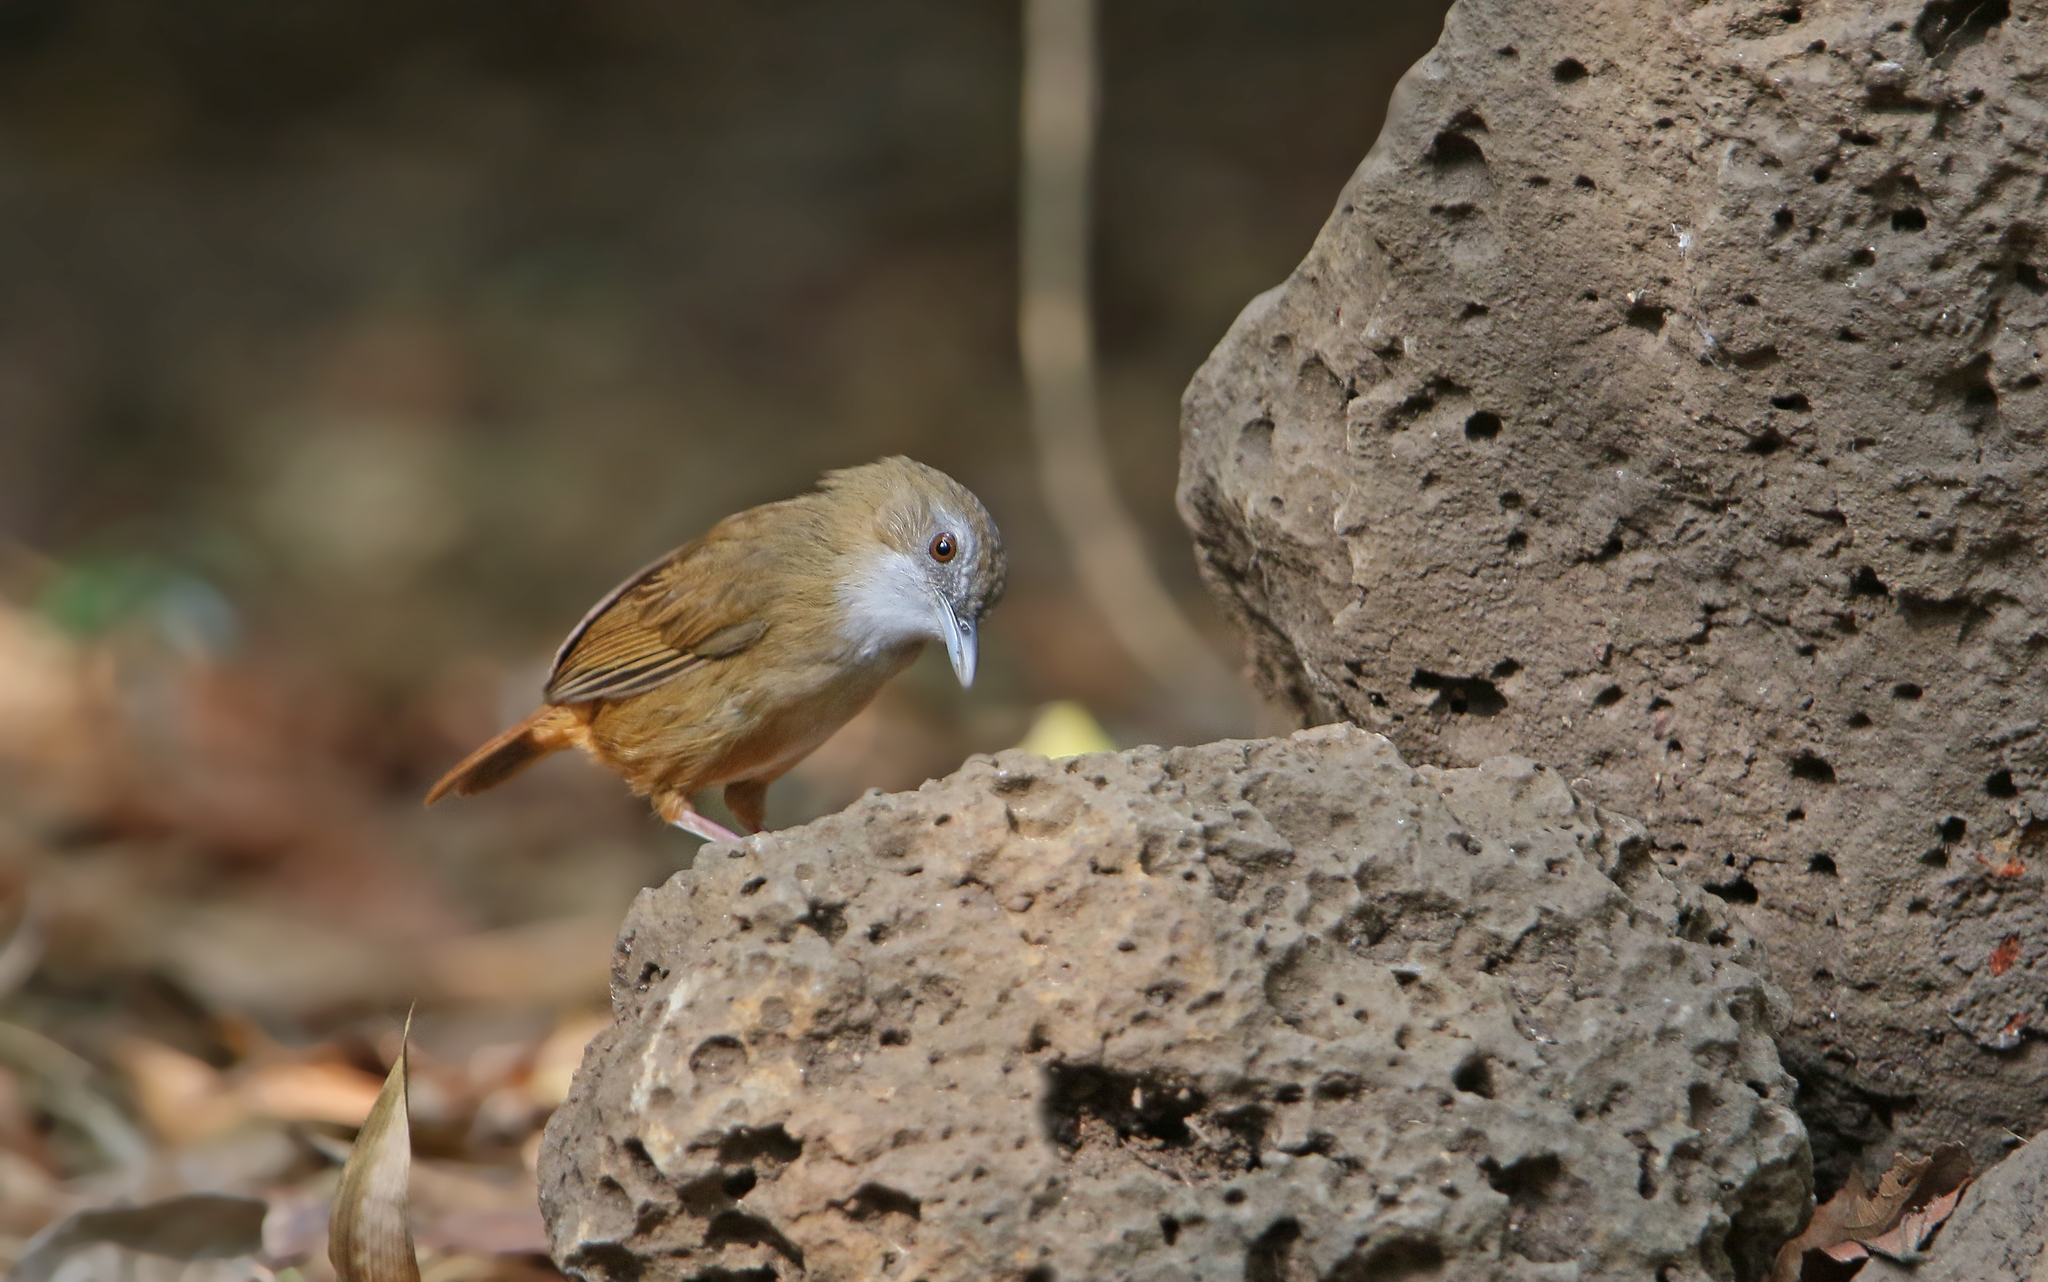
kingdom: Animalia
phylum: Chordata
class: Aves
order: Passeriformes
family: Pellorneidae
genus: Malacocincla
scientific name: Malacocincla abbotti
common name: Abbott's babbler
